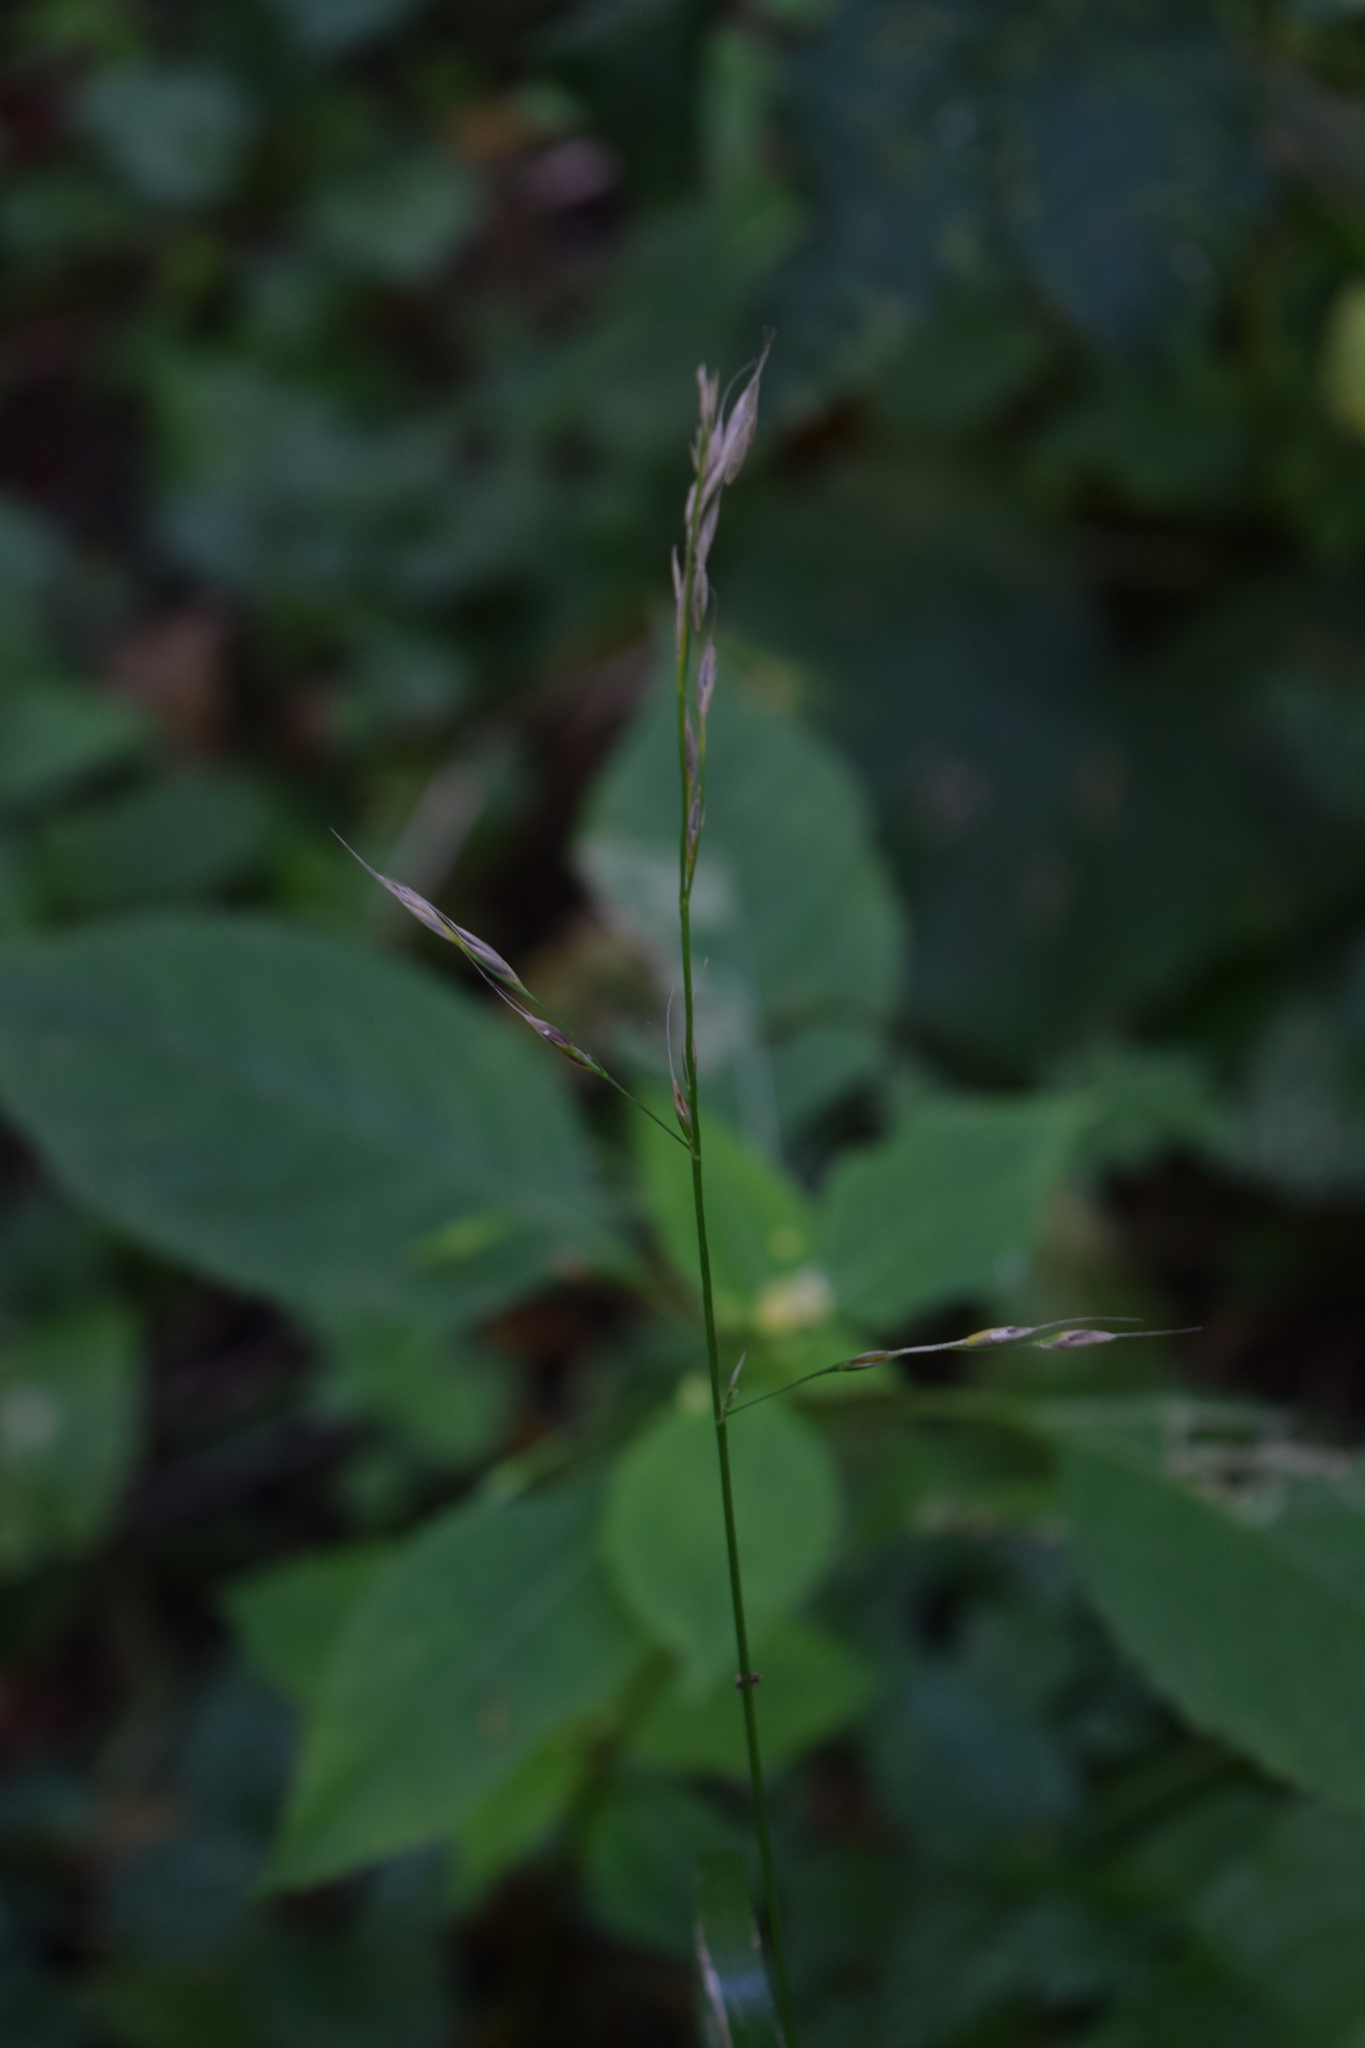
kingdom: Plantae
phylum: Tracheophyta
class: Liliopsida
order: Poales
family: Poaceae
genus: Lolium
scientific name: Lolium giganteum
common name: Giant fescue
